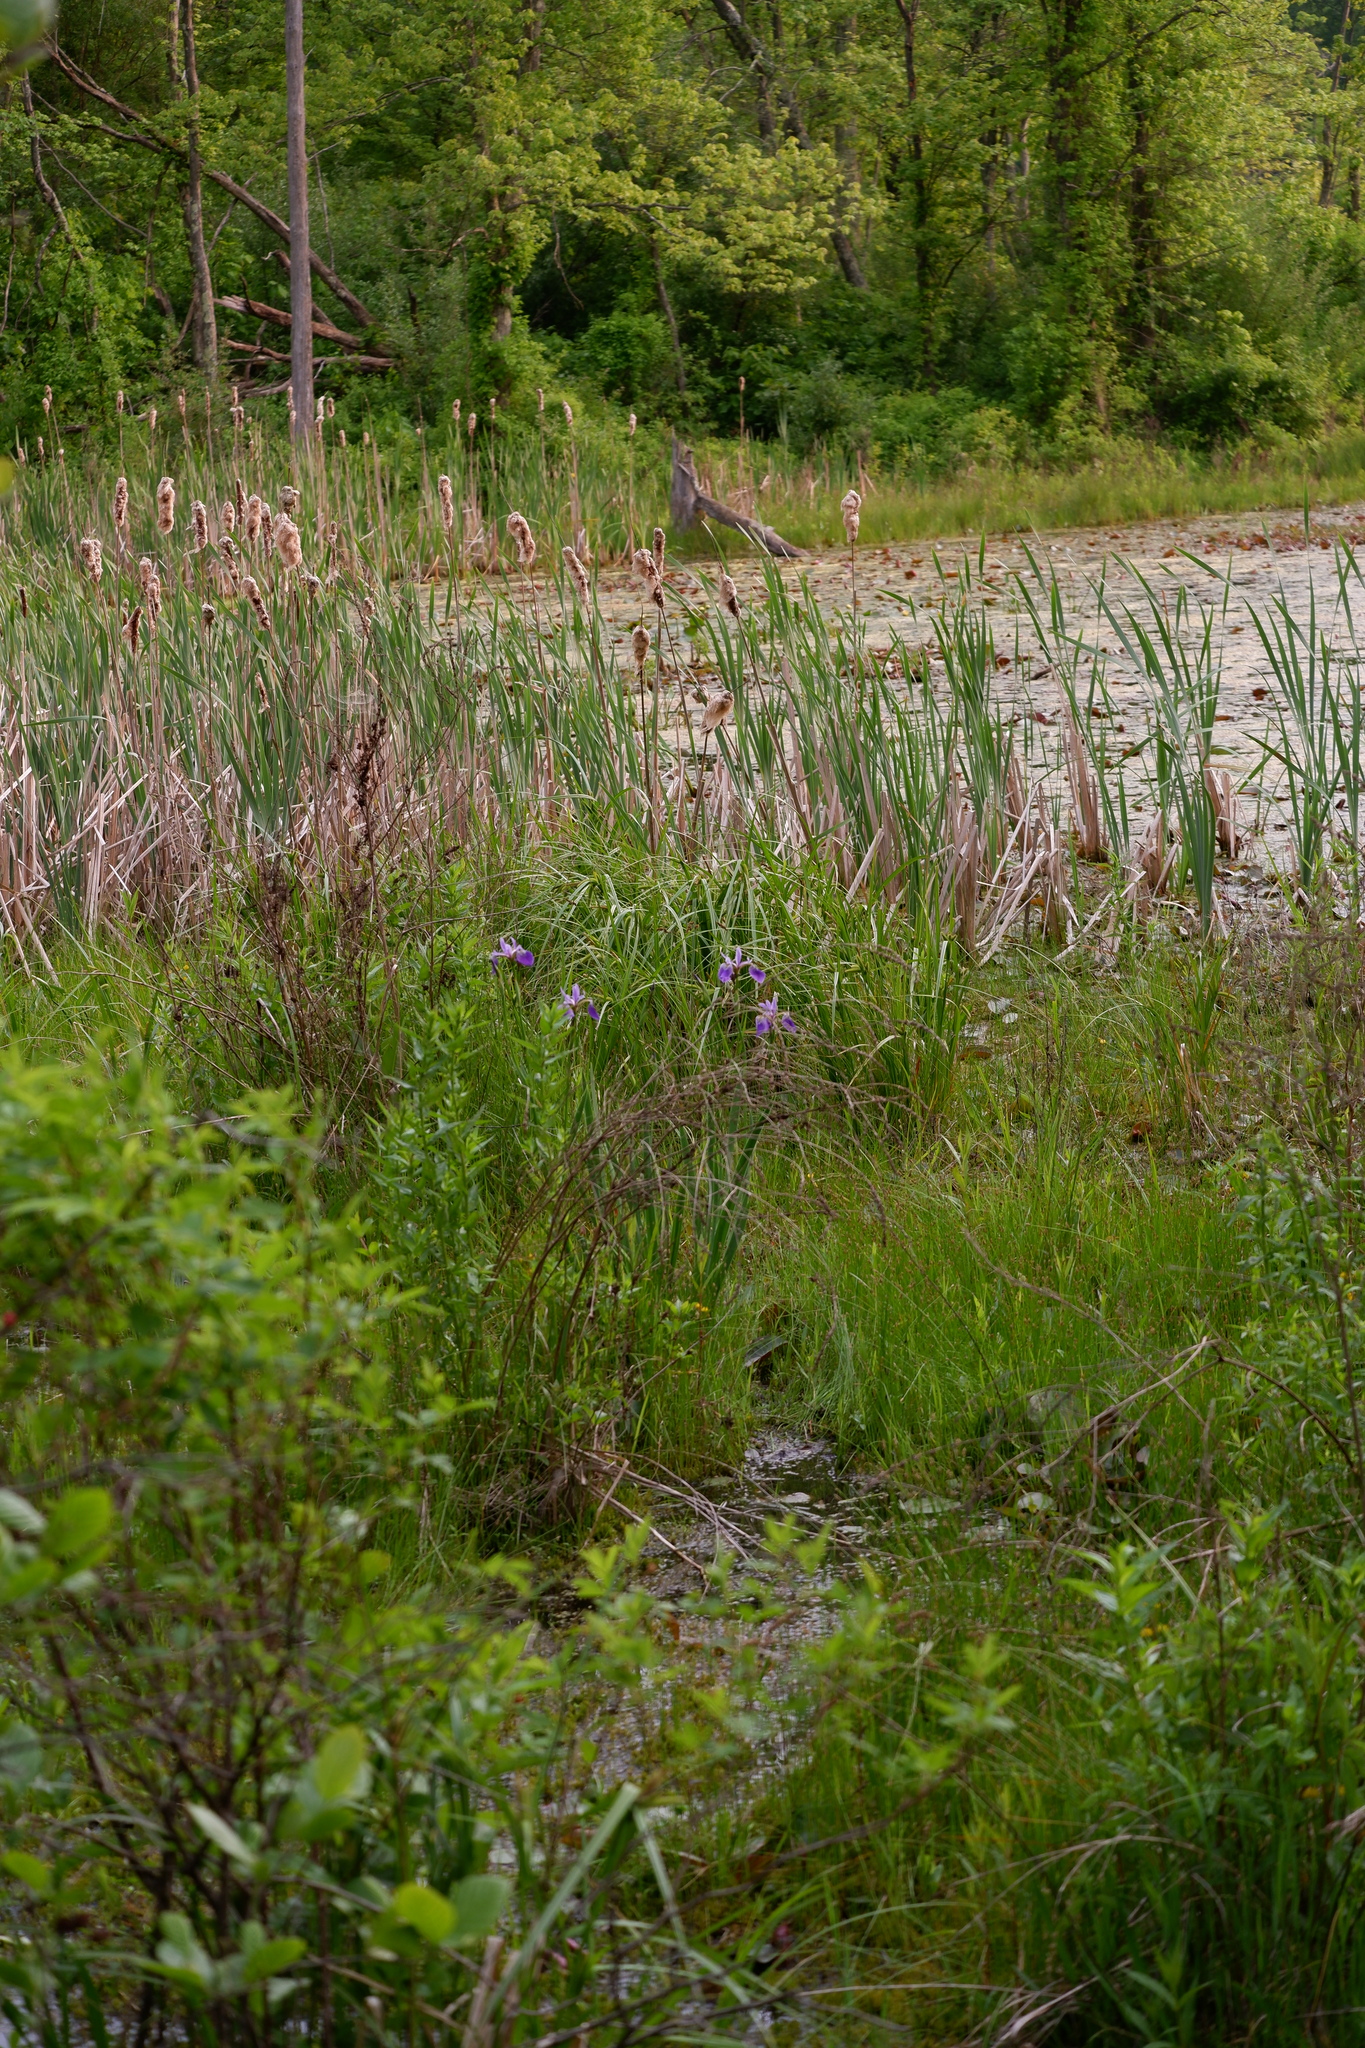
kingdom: Plantae
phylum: Tracheophyta
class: Liliopsida
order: Asparagales
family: Iridaceae
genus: Iris
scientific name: Iris versicolor
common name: Purple iris
